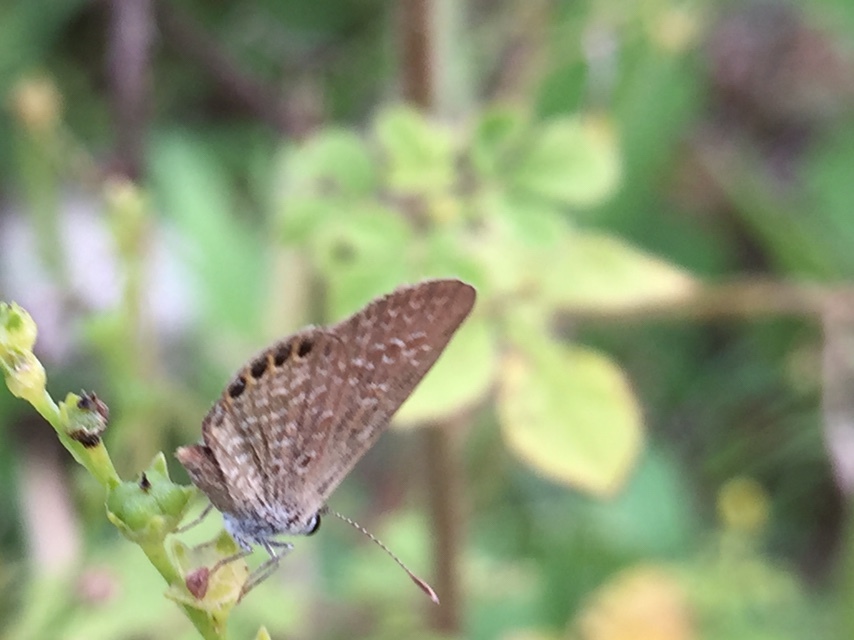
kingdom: Animalia
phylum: Arthropoda
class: Insecta
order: Lepidoptera
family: Lycaenidae
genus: Freyeria
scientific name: Freyeria putli
